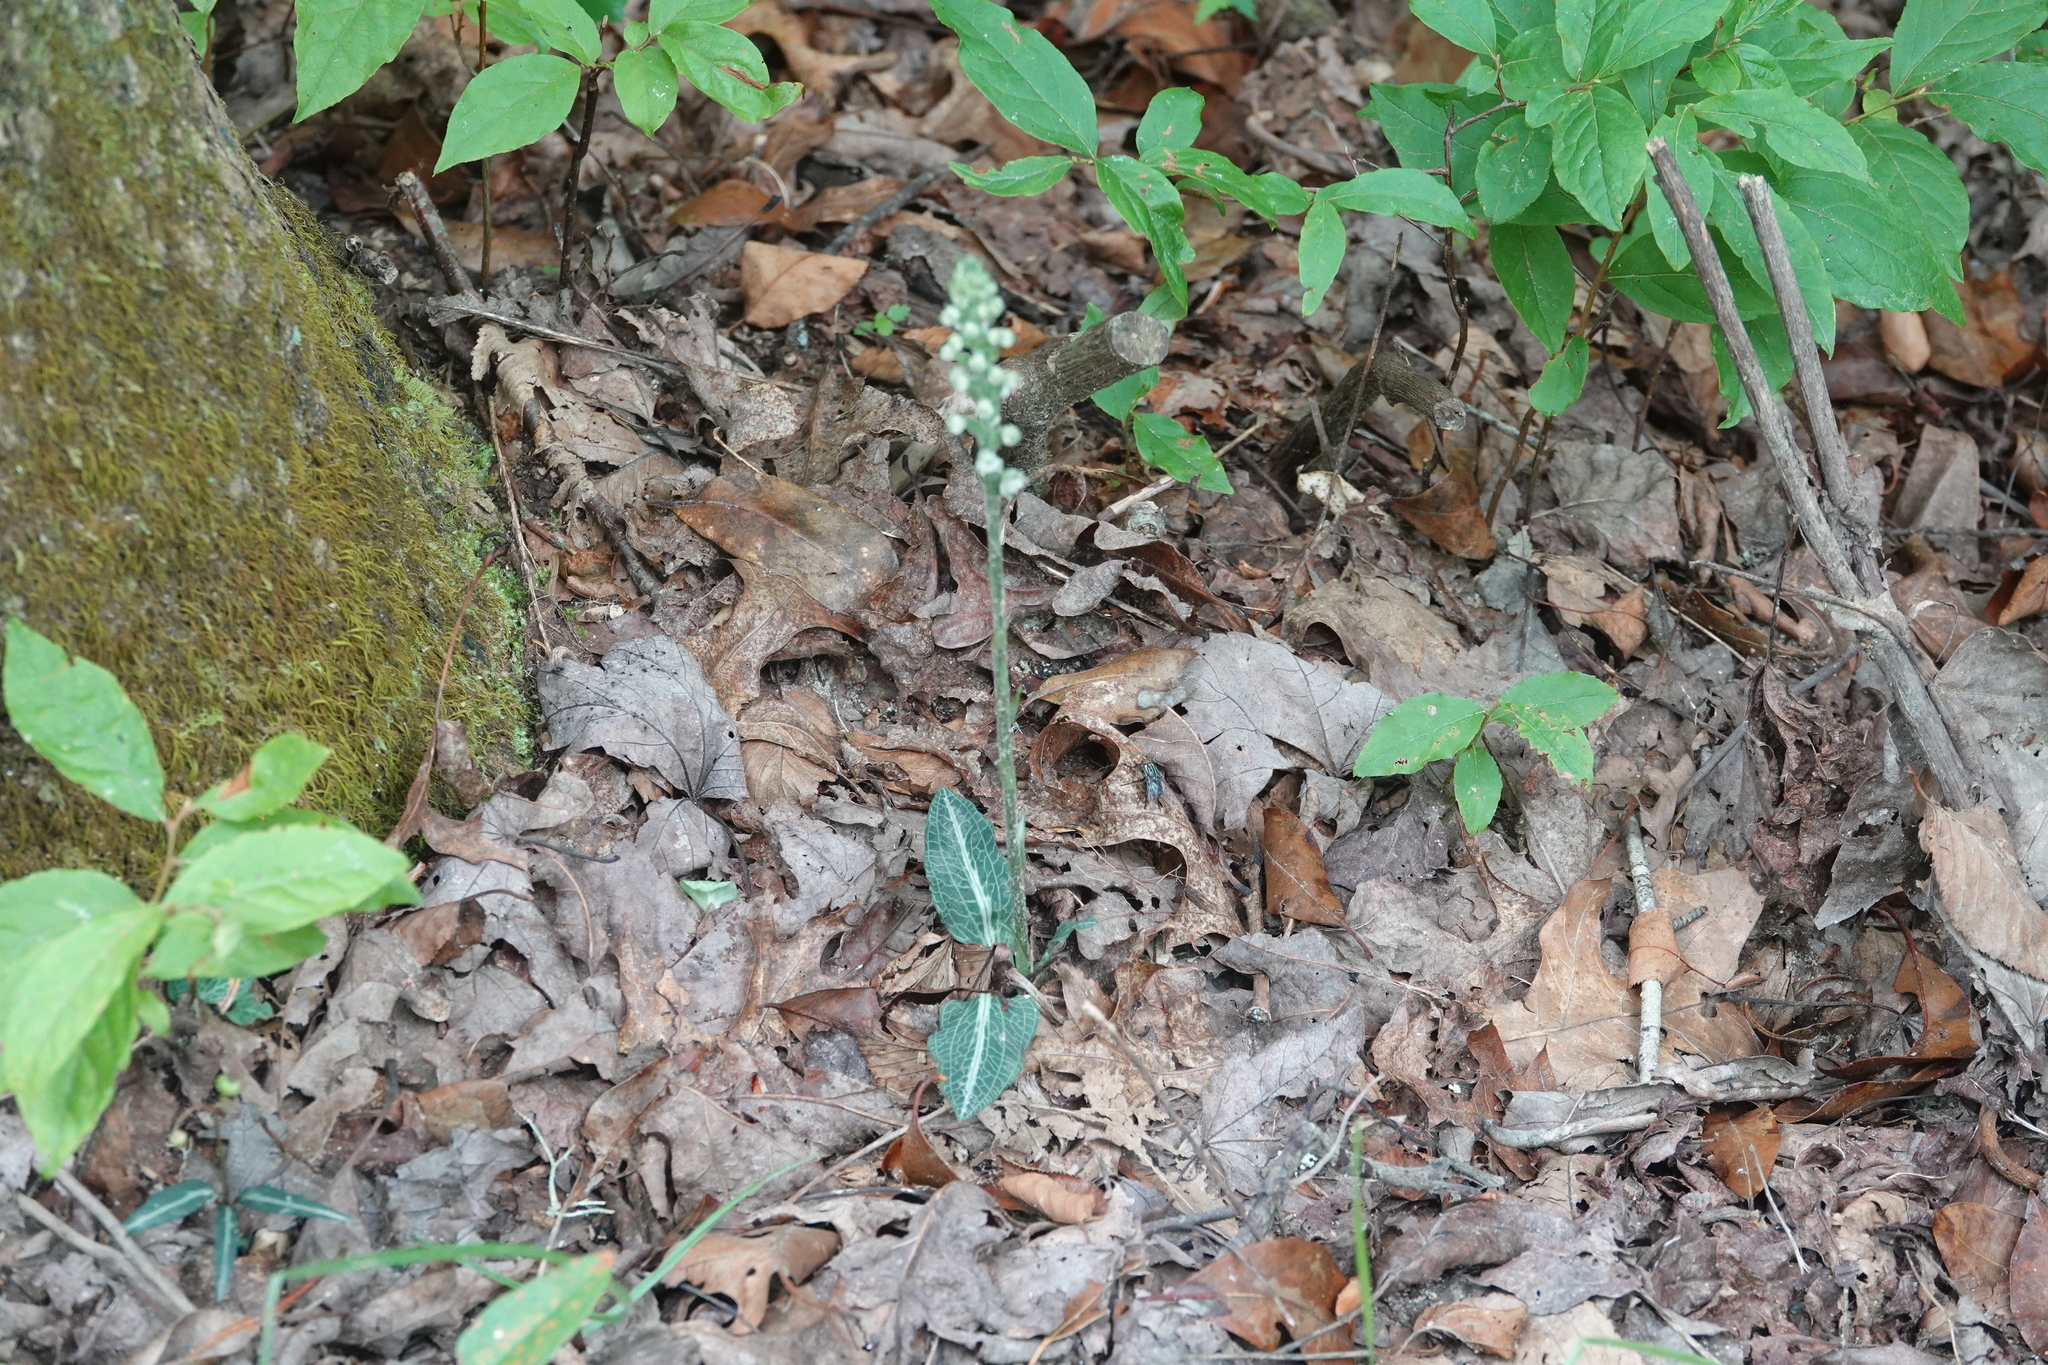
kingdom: Plantae
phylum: Tracheophyta
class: Liliopsida
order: Asparagales
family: Orchidaceae
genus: Goodyera
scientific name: Goodyera pubescens
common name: Downy rattlesnake-plantain
